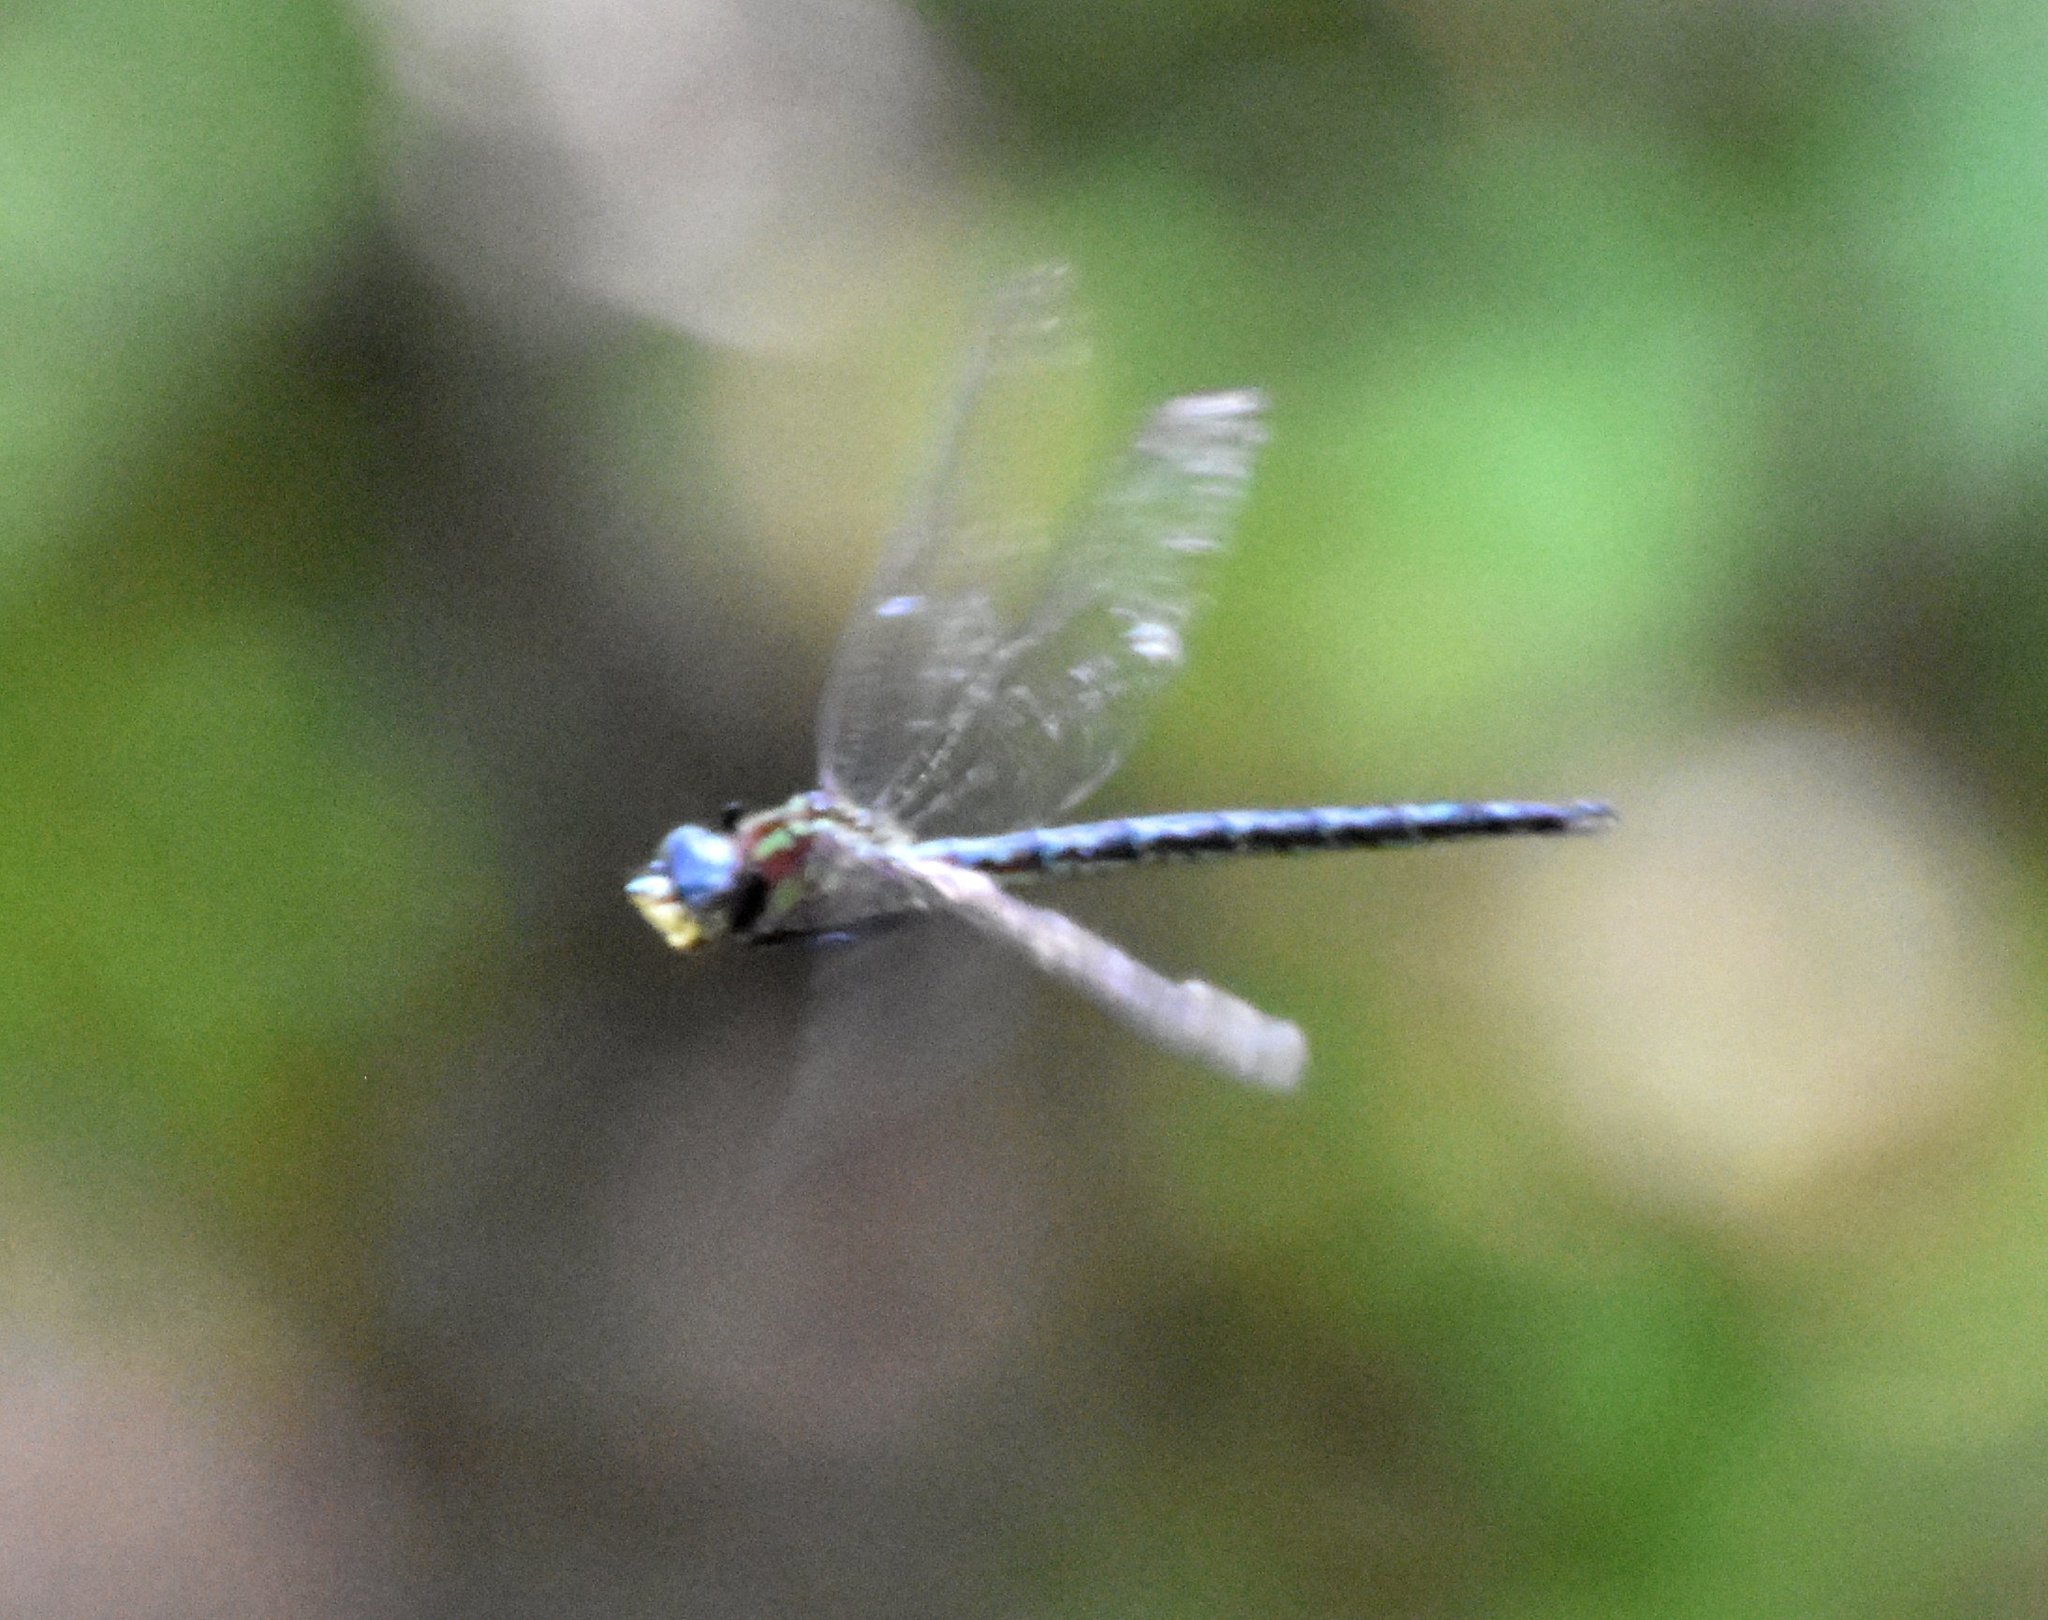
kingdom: Animalia
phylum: Arthropoda
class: Insecta
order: Odonata
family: Aeshnidae
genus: Nasiaeschna
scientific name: Nasiaeschna pentacantha
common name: Cyrano darner
